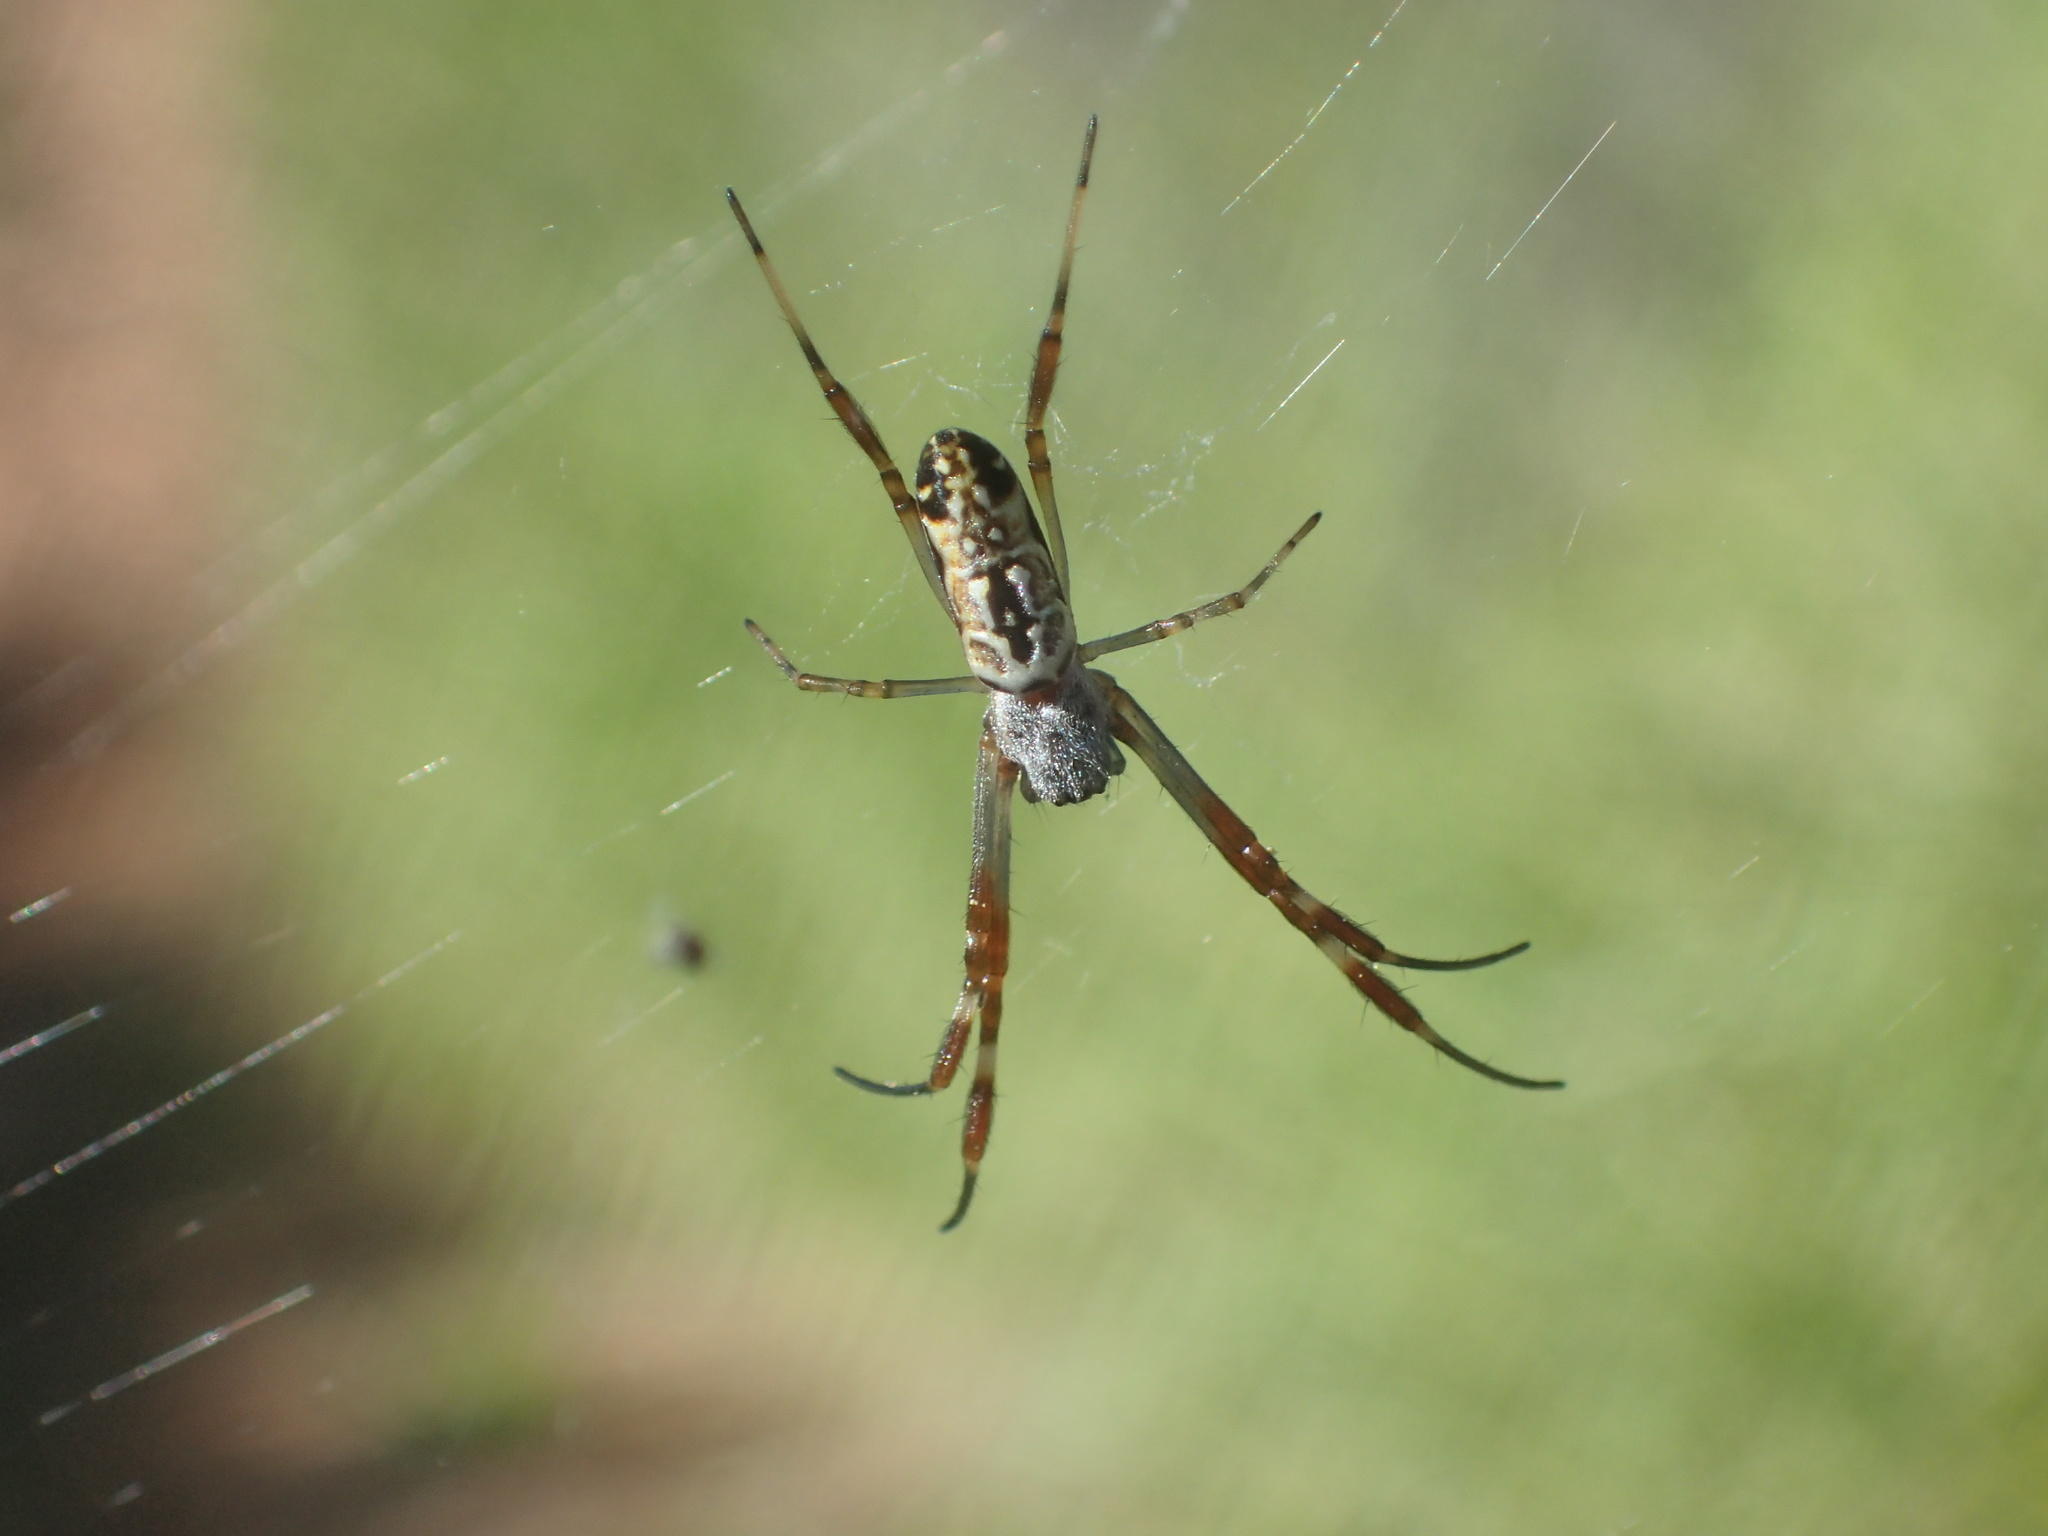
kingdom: Animalia
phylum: Arthropoda
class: Arachnida
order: Araneae
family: Araneidae
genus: Trichonephila
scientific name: Trichonephila edulis
